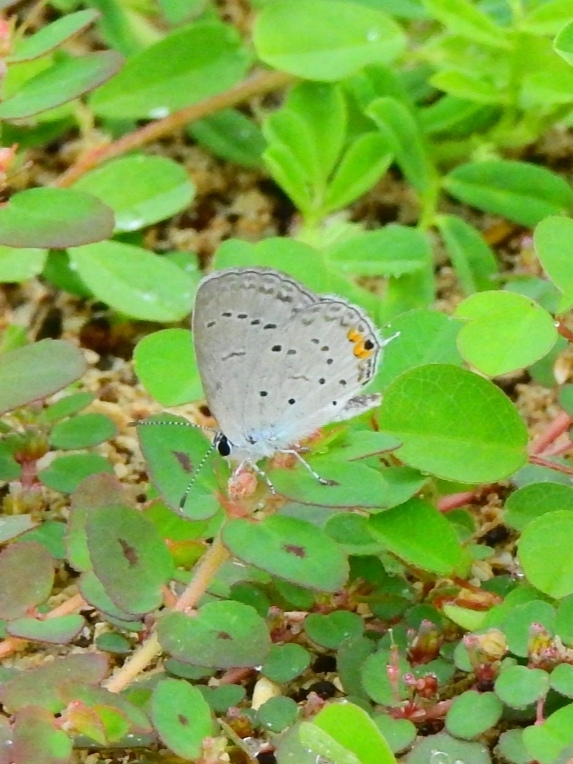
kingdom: Animalia
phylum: Arthropoda
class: Insecta
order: Lepidoptera
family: Lycaenidae
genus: Elkalyce
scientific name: Elkalyce comyntas
